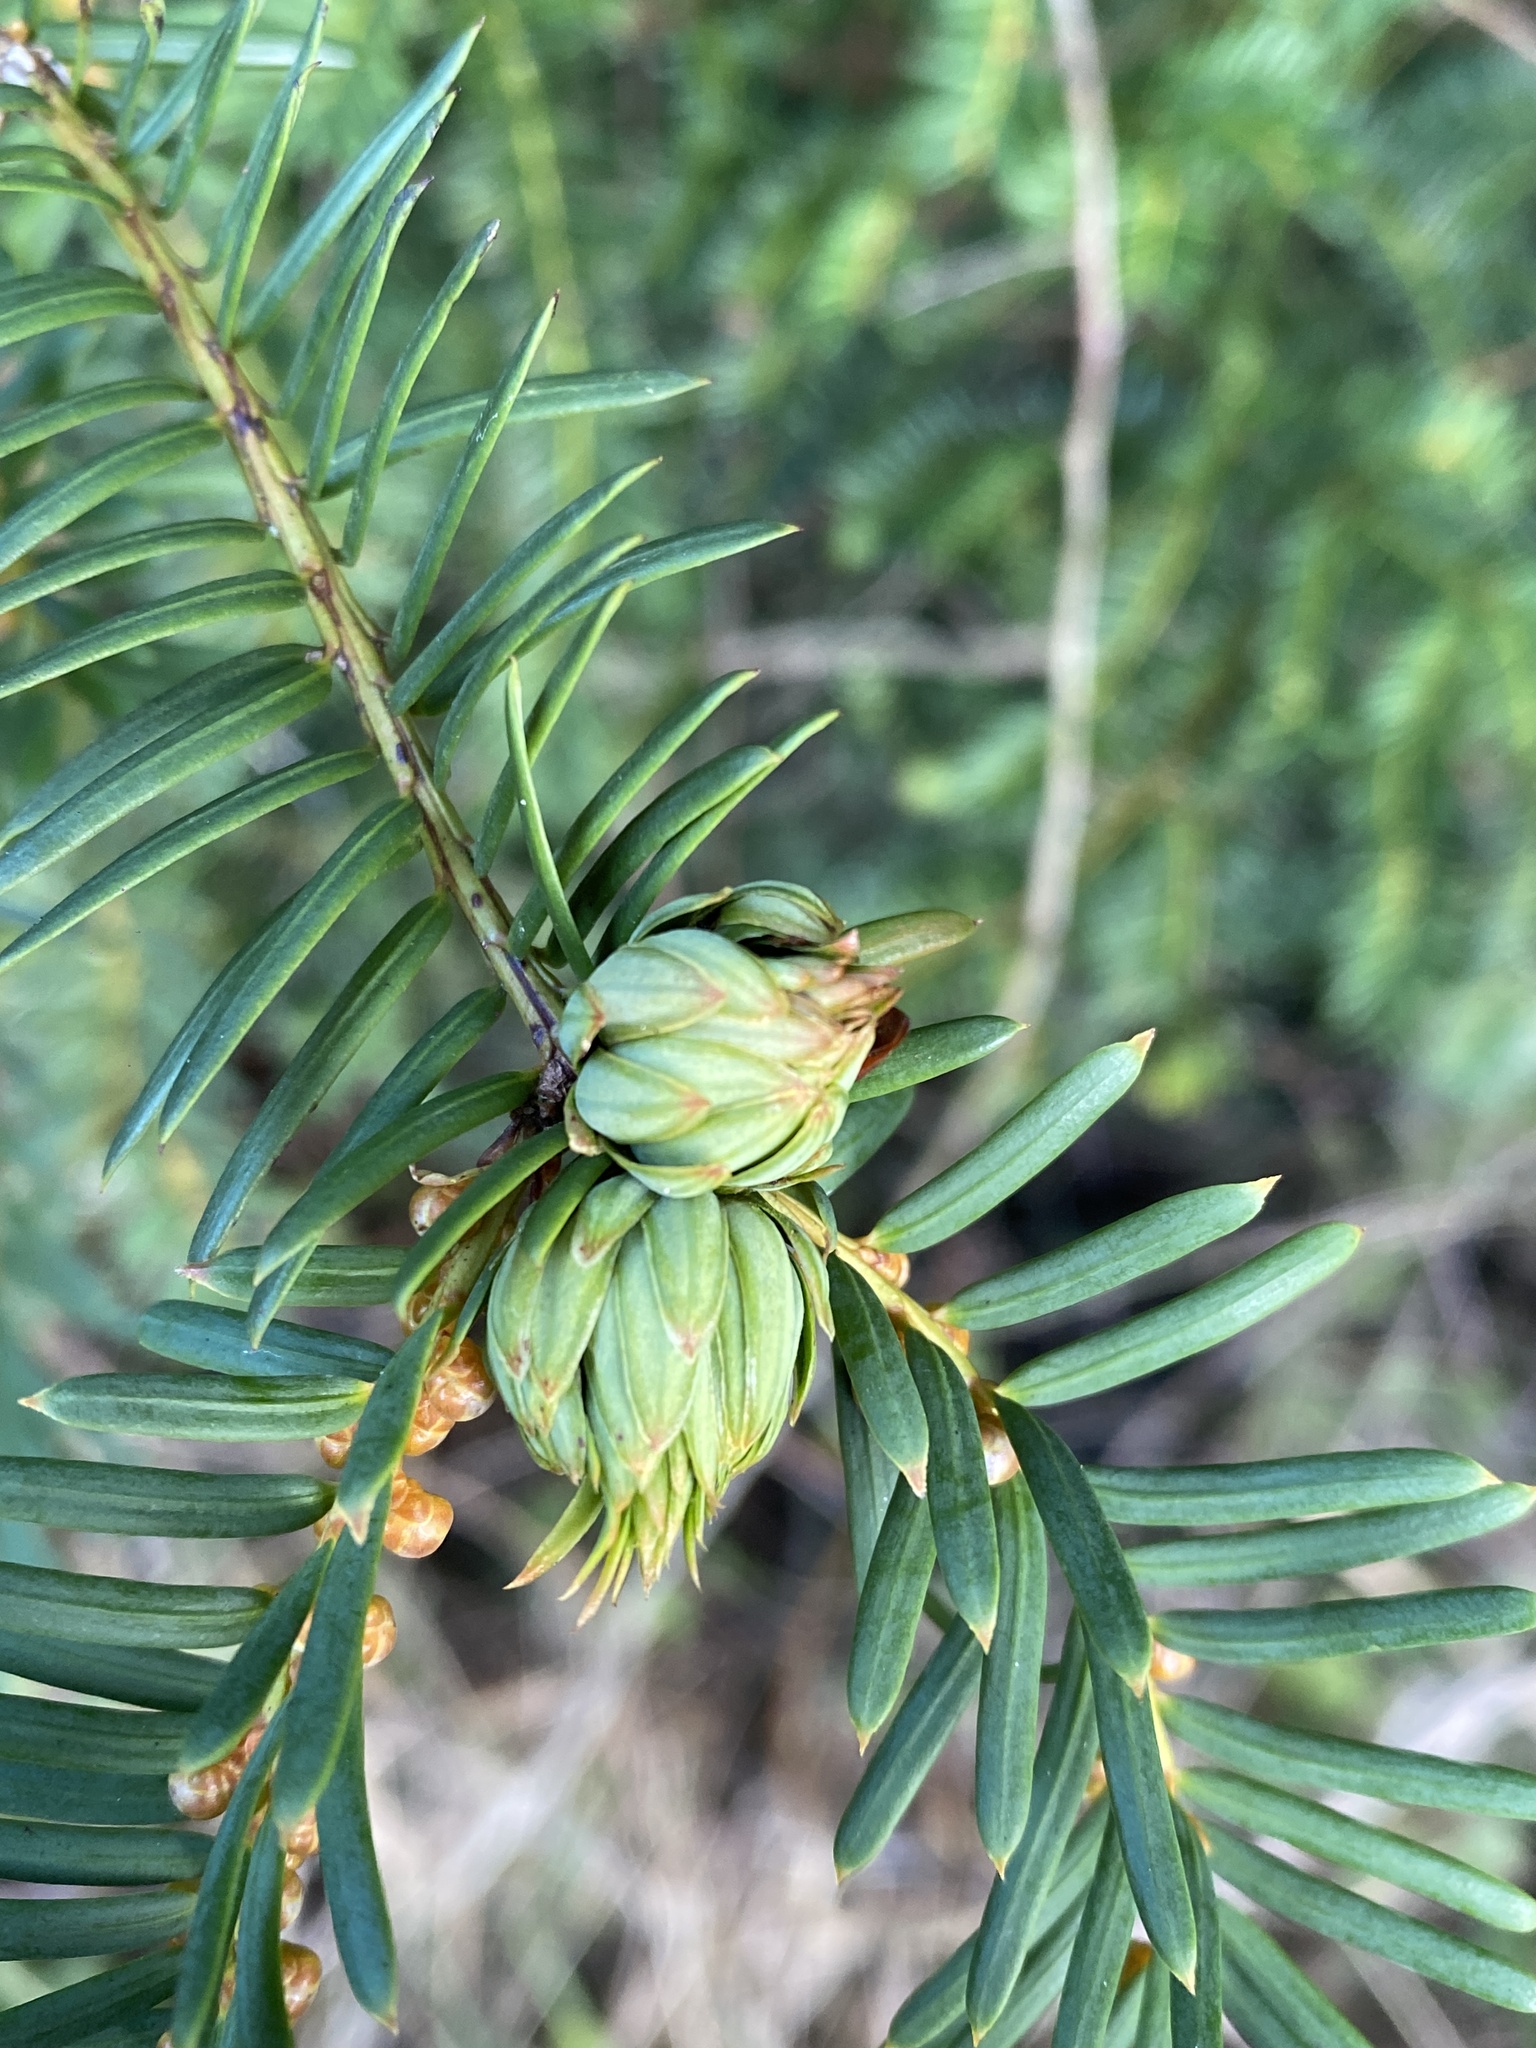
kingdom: Animalia
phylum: Arthropoda
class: Insecta
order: Diptera
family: Cecidomyiidae
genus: Taxomyia
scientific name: Taxomyia taxi
